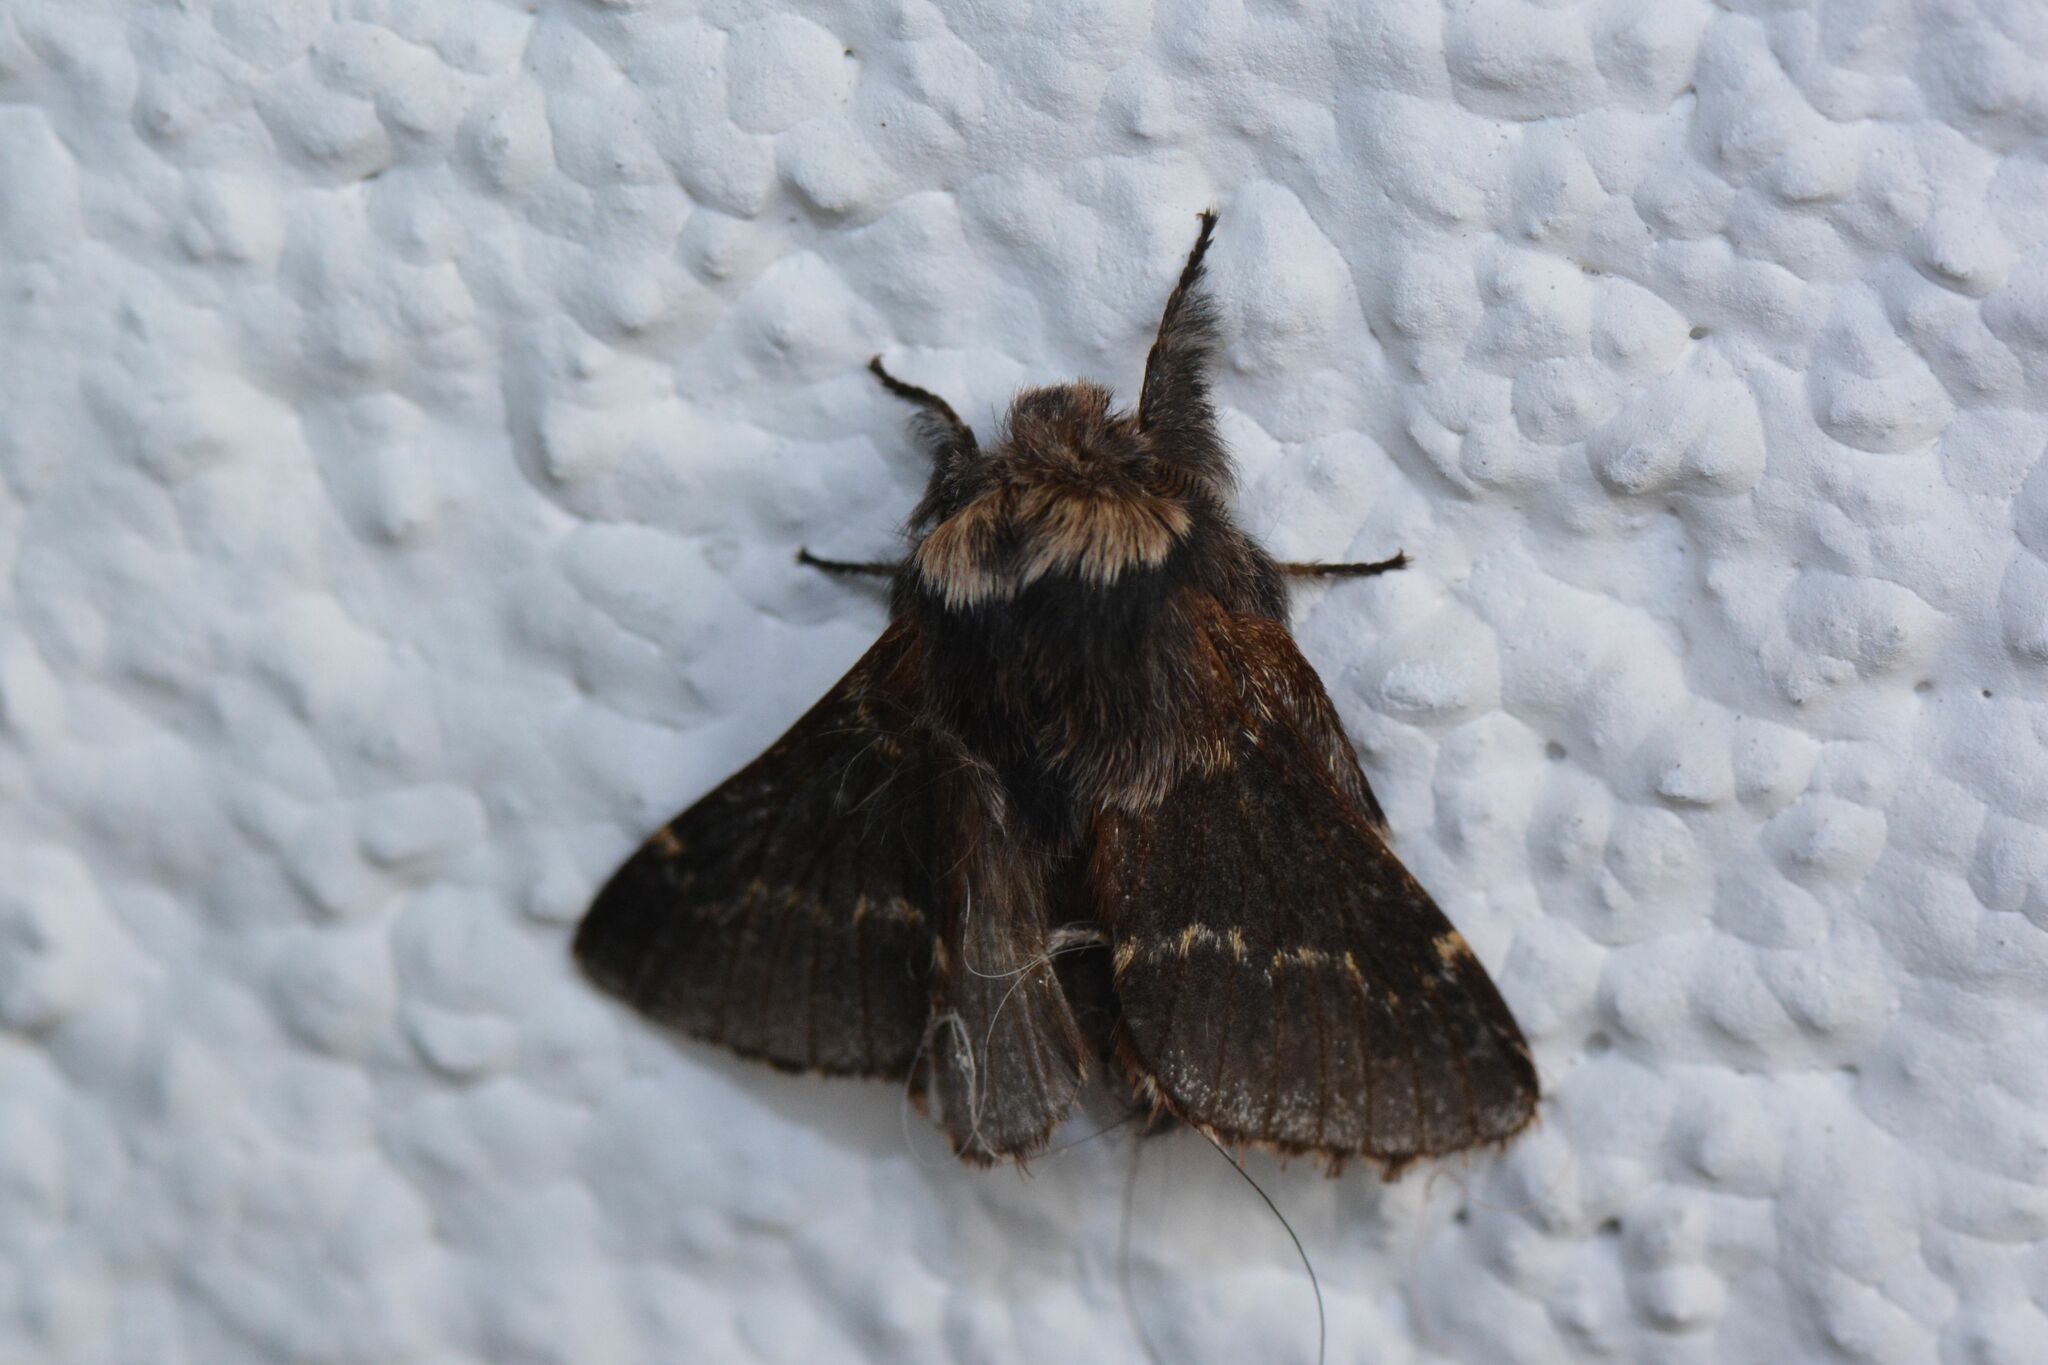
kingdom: Animalia
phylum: Arthropoda
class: Insecta
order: Lepidoptera
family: Lasiocampidae
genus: Poecilocampa
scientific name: Poecilocampa populi
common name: December moth
